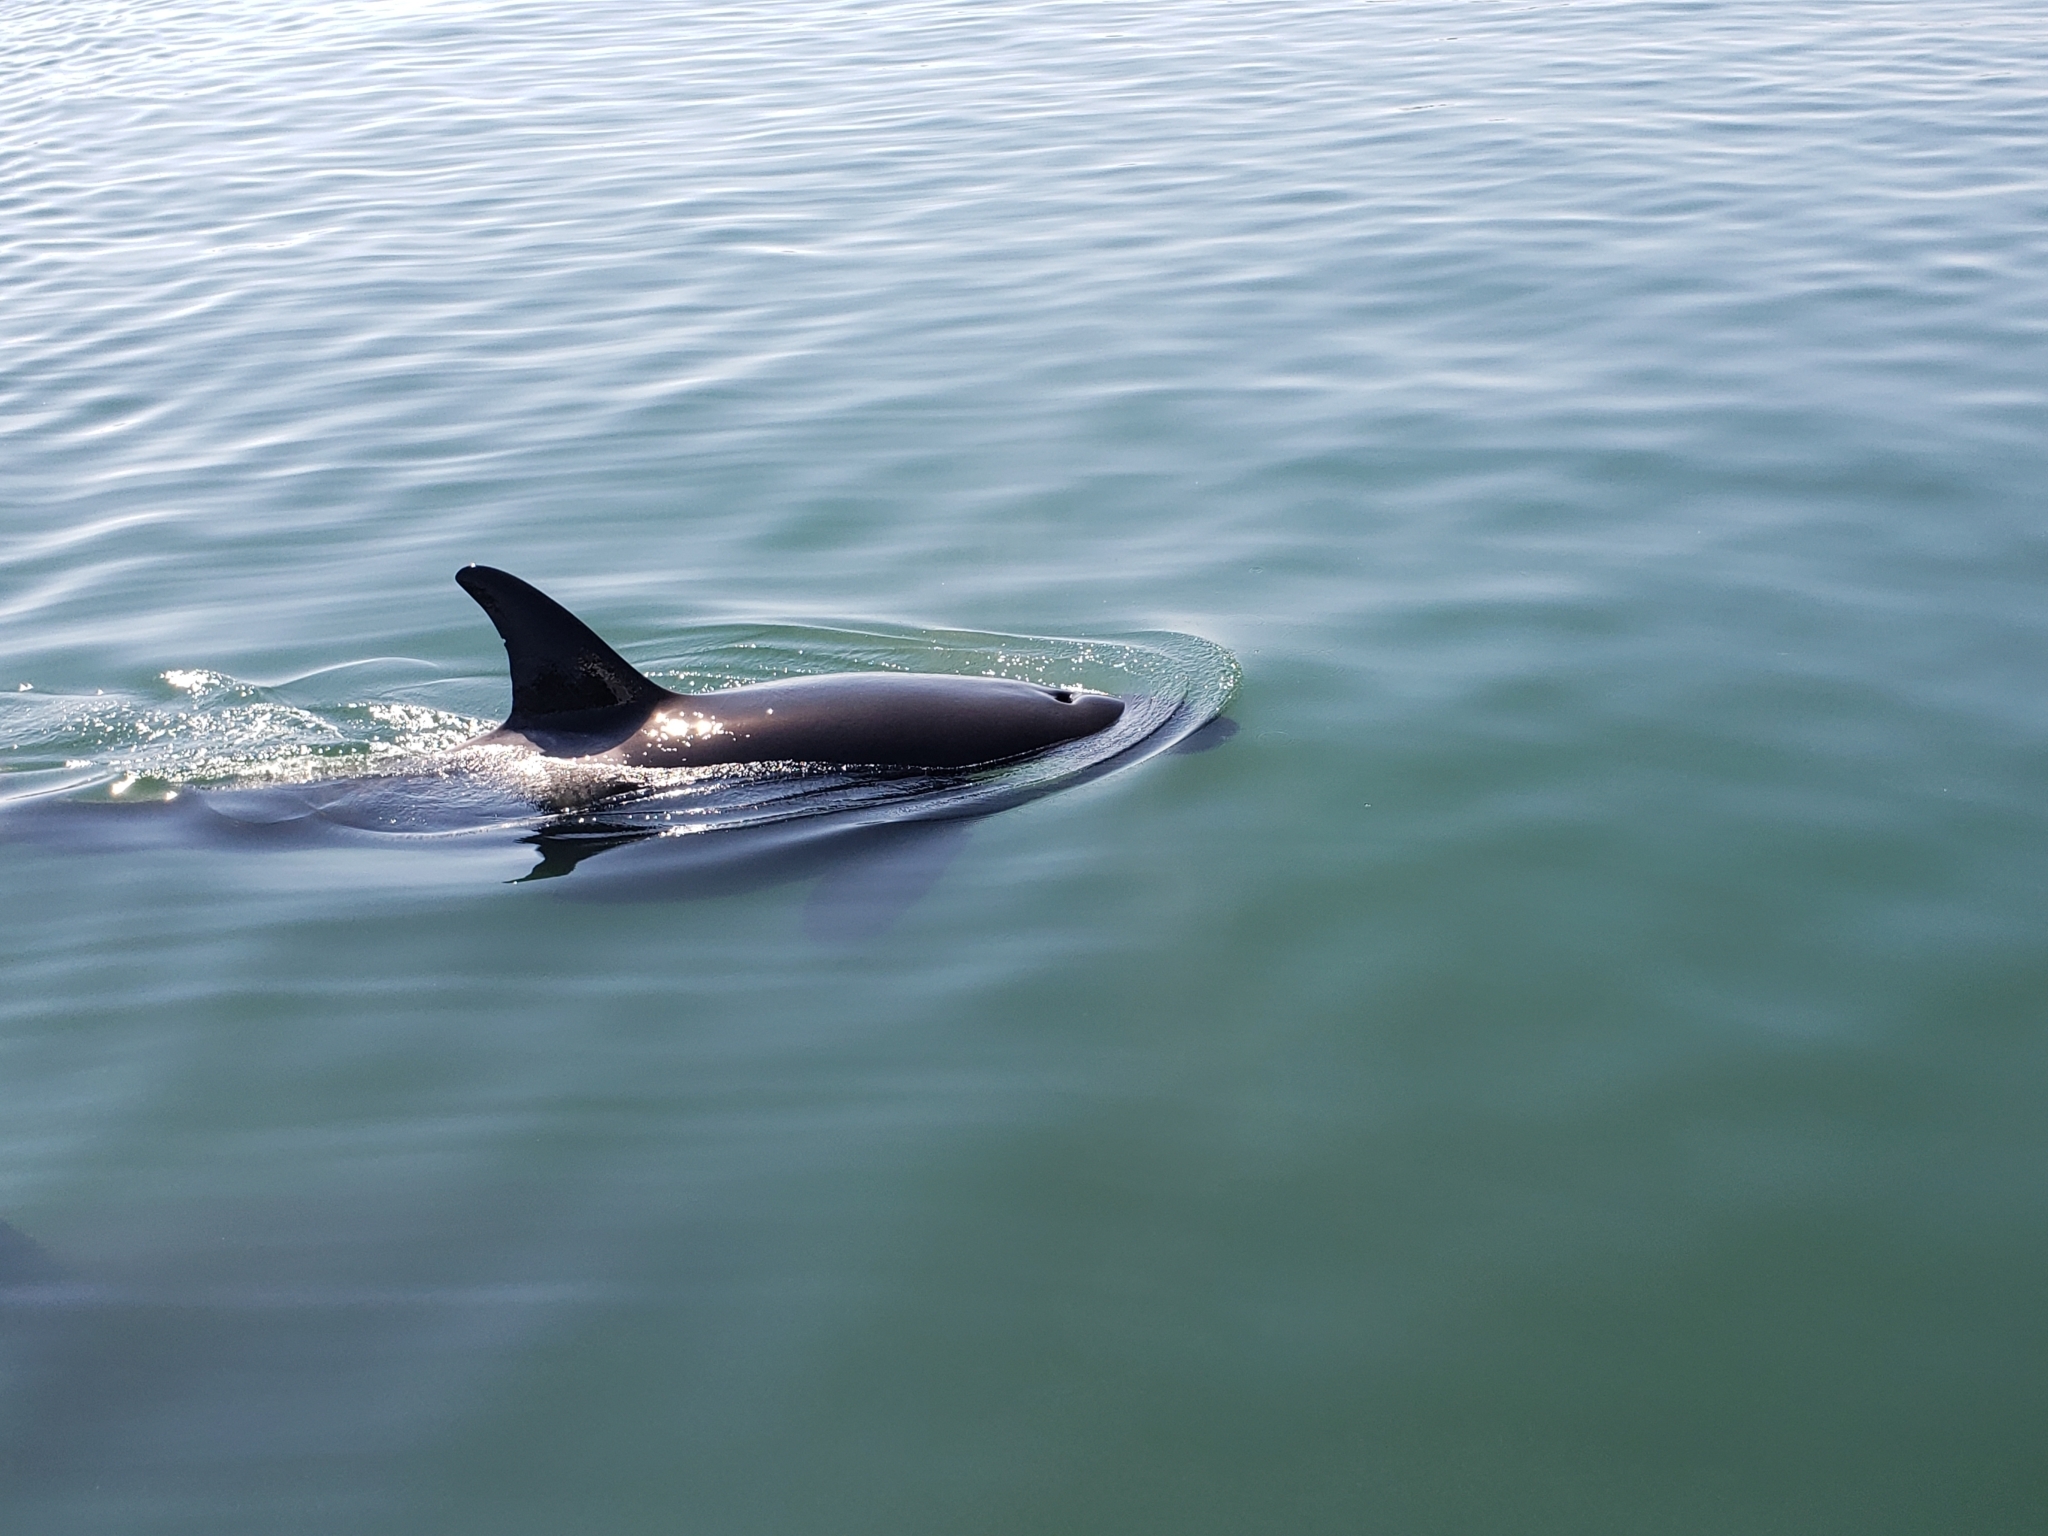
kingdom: Animalia
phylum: Chordata
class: Mammalia
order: Cetacea
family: Delphinidae
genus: Orcinus
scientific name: Orcinus orca
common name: Killer whale
